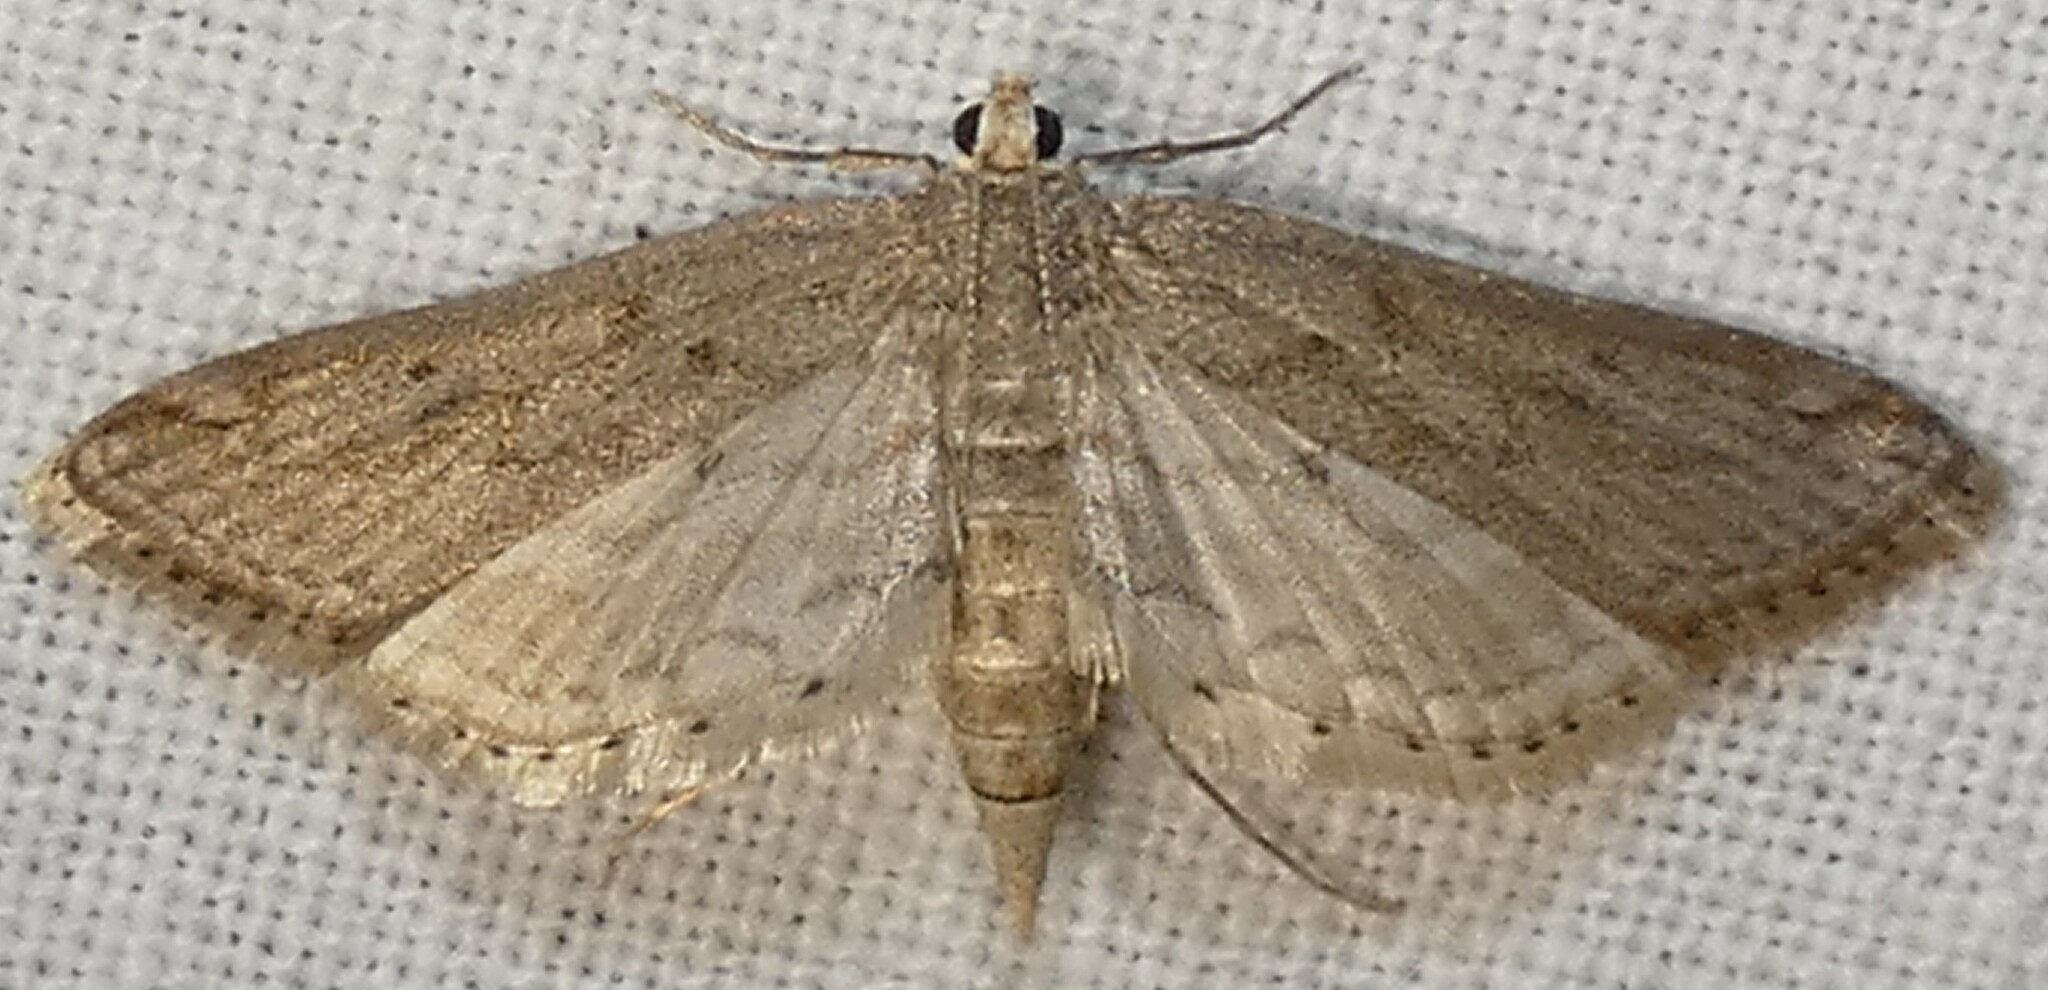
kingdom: Animalia
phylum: Arthropoda
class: Insecta
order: Lepidoptera
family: Crambidae
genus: Parapoynx
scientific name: Parapoynx allionealis
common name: Bladderwort casemaker
